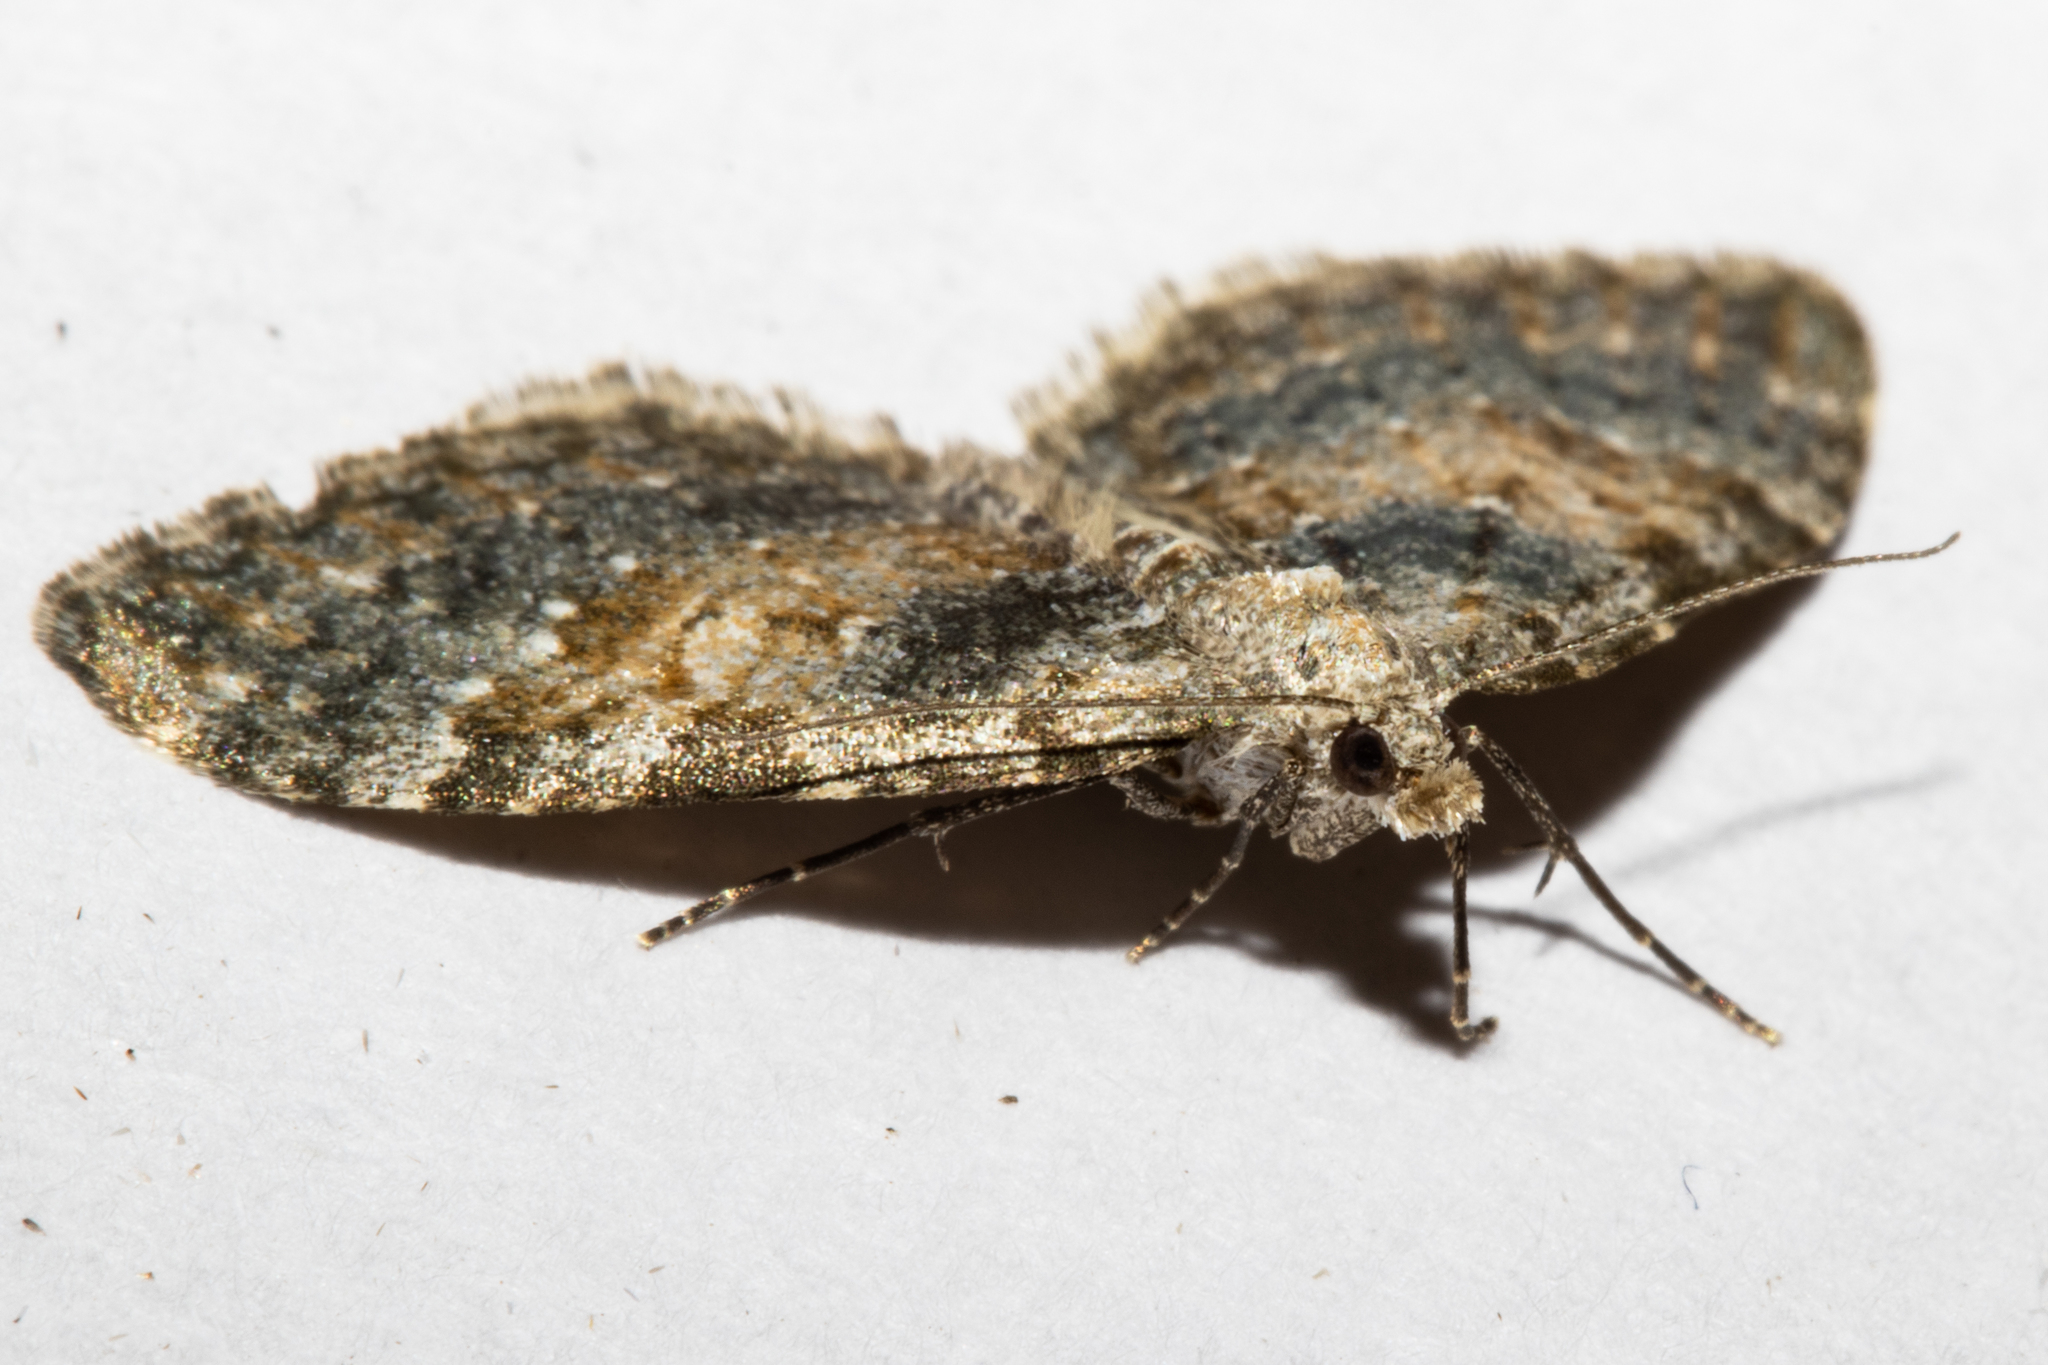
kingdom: Animalia
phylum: Arthropoda
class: Insecta
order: Lepidoptera
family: Geometridae
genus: Helastia
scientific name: Helastia plumbea
